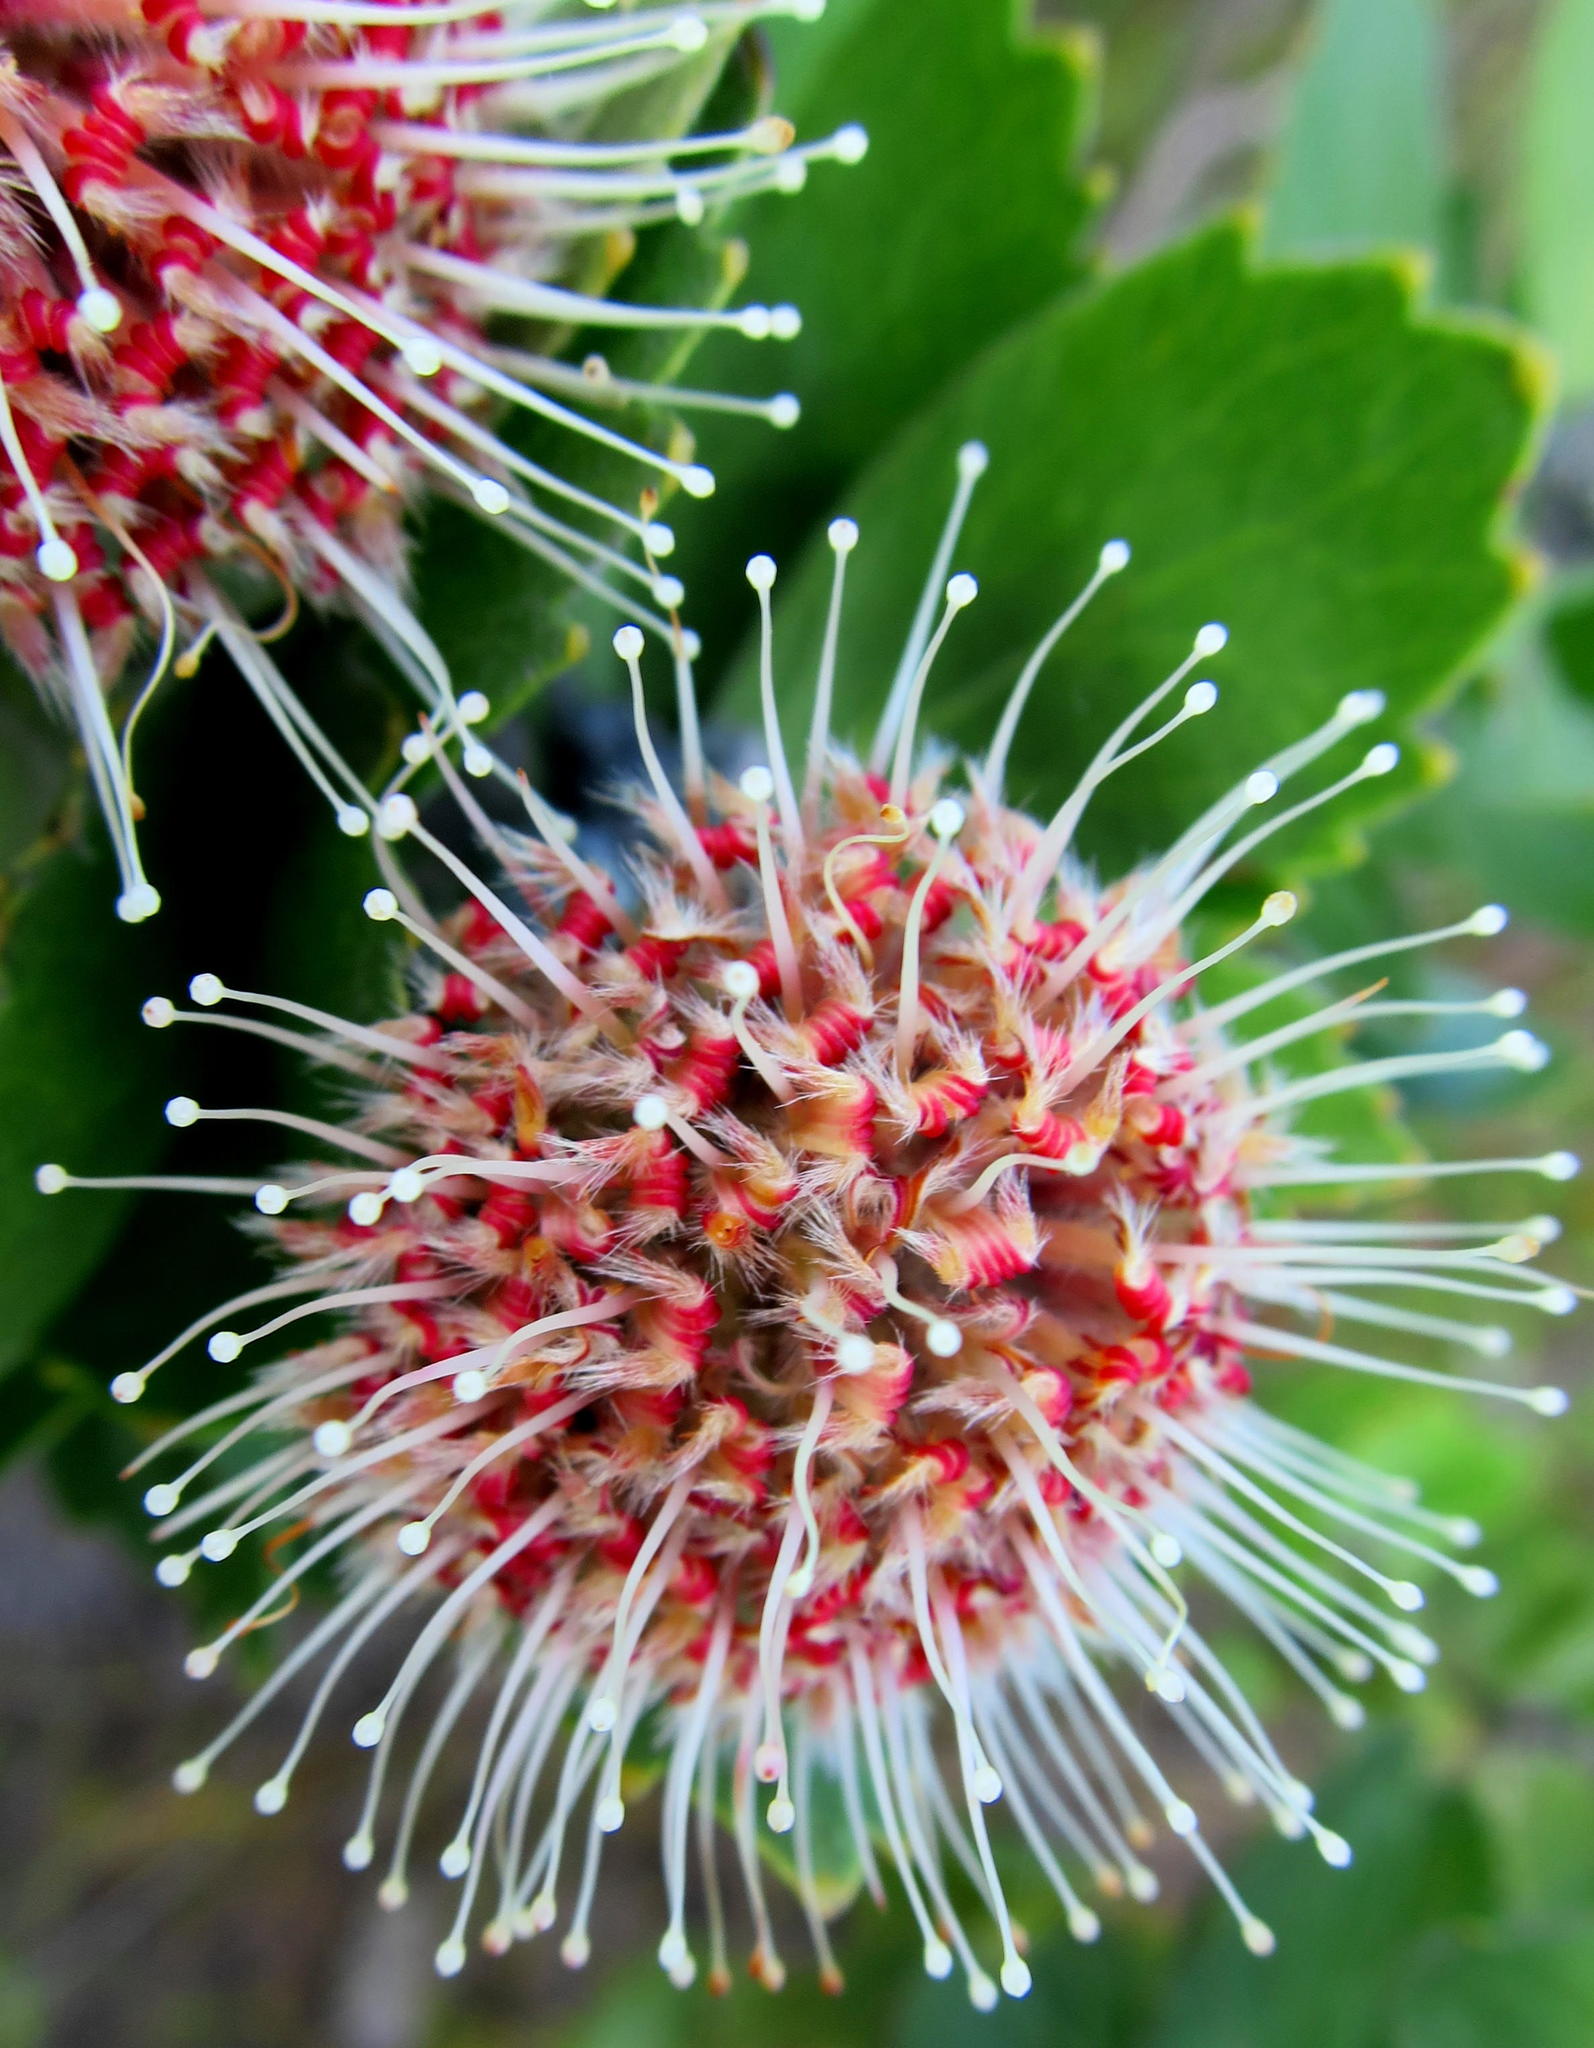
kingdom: Plantae
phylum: Tracheophyta
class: Magnoliopsida
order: Proteales
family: Proteaceae
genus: Leucospermum
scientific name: Leucospermum winteri
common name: Riversdale pincushion
